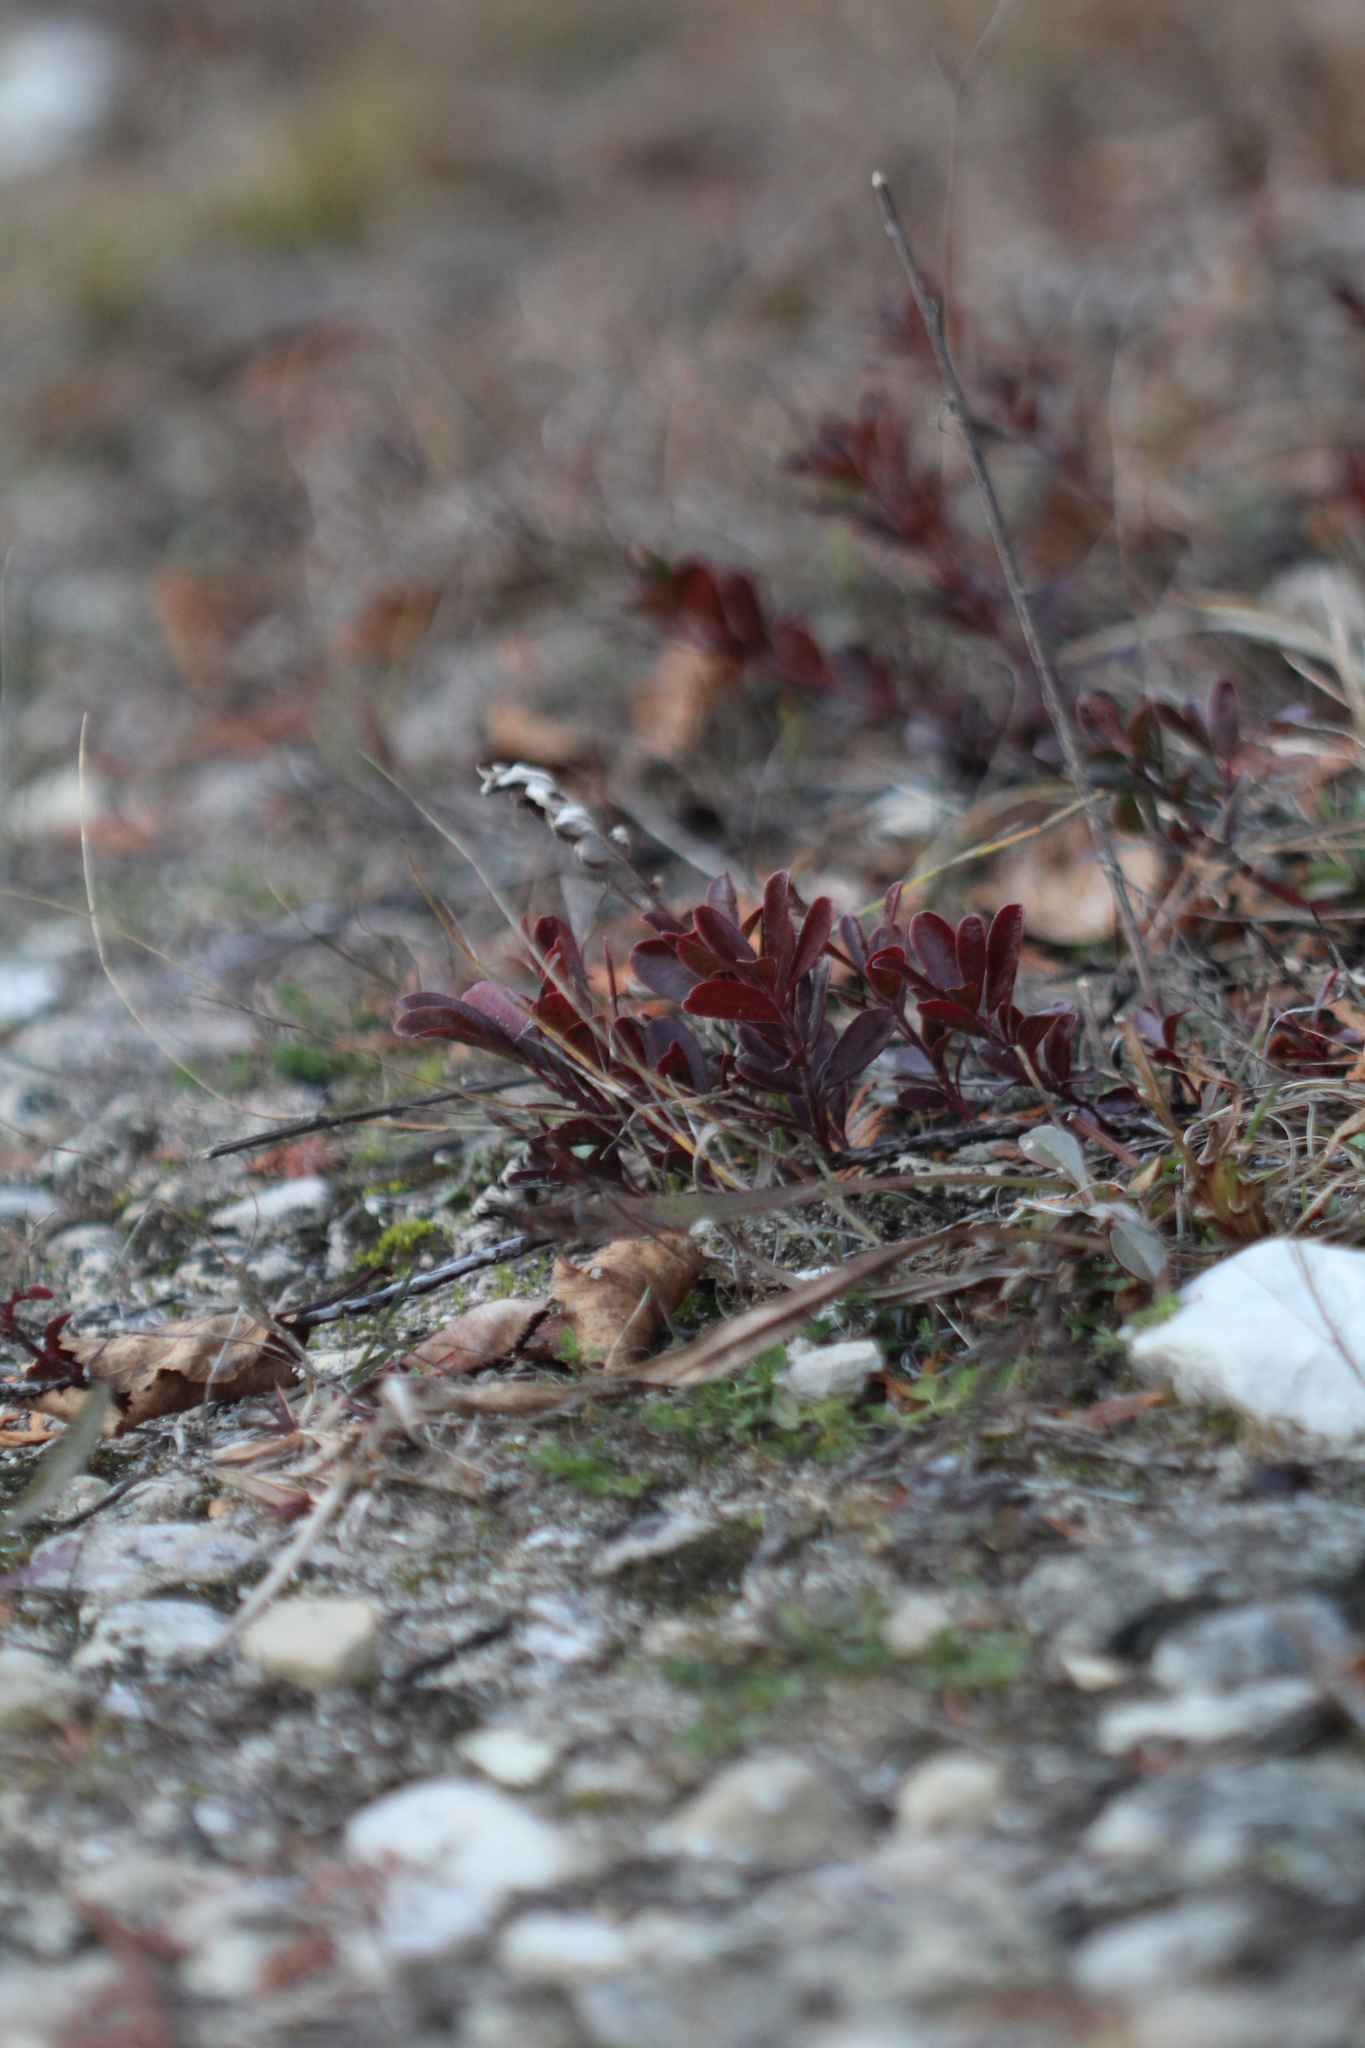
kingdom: Plantae
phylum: Tracheophyta
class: Magnoliopsida
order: Ericales
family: Ericaceae
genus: Arctostaphylos
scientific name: Arctostaphylos uva-ursi
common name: Bearberry
